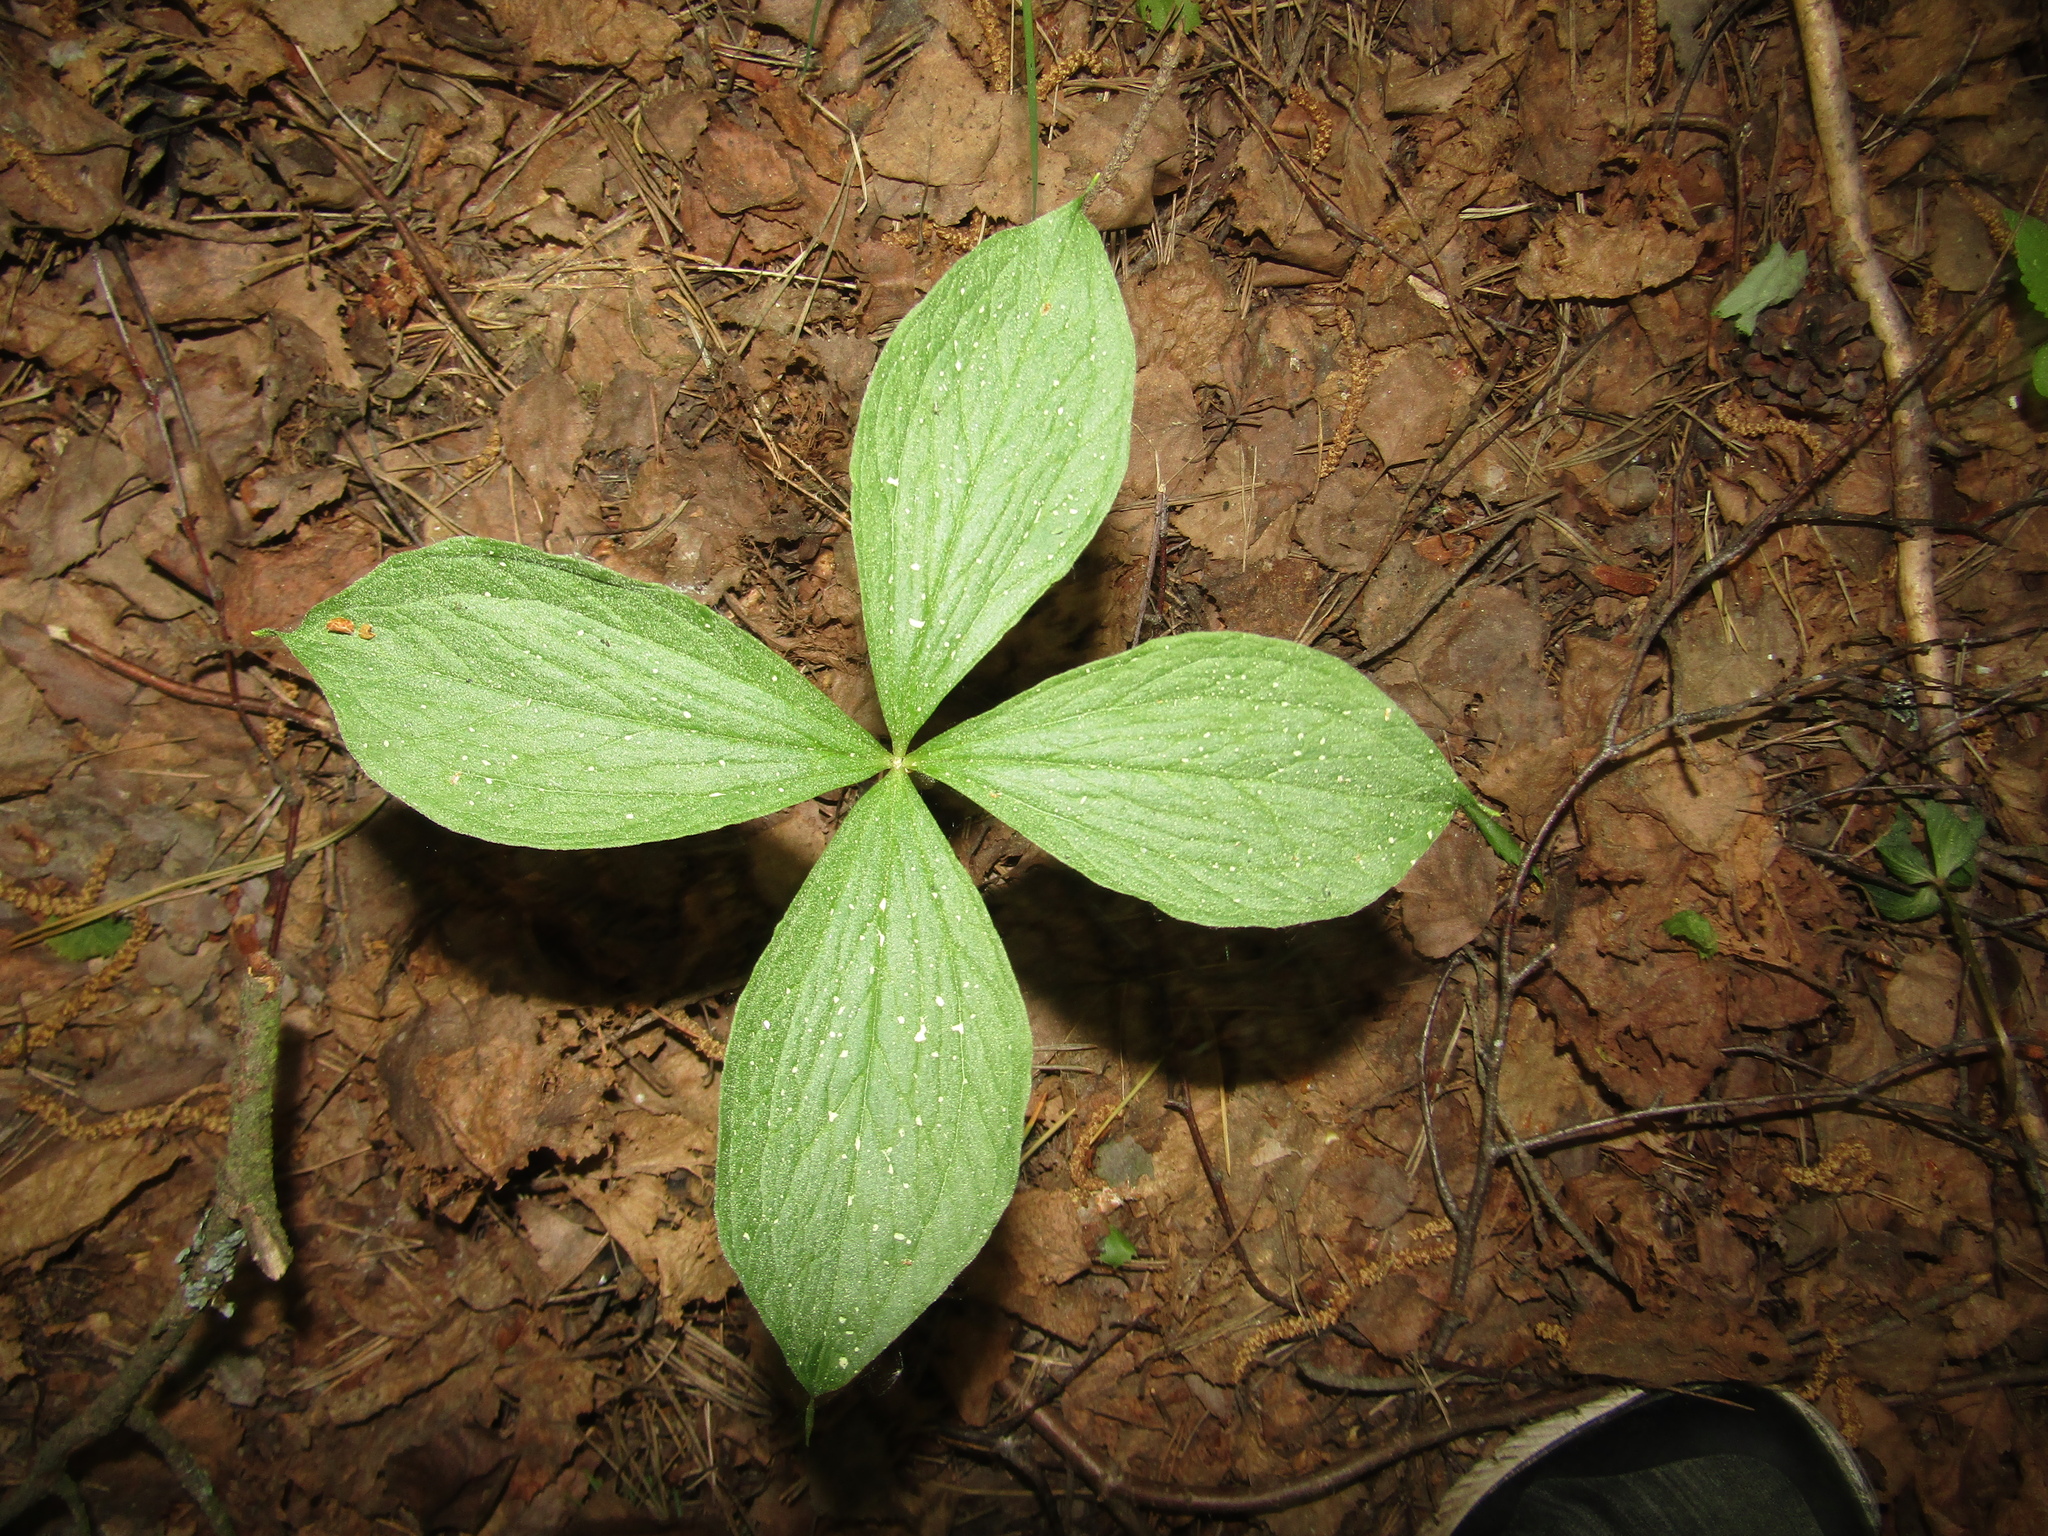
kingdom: Plantae
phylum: Tracheophyta
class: Liliopsida
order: Liliales
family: Melanthiaceae
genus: Paris
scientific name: Paris quadrifolia
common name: Herb-paris
